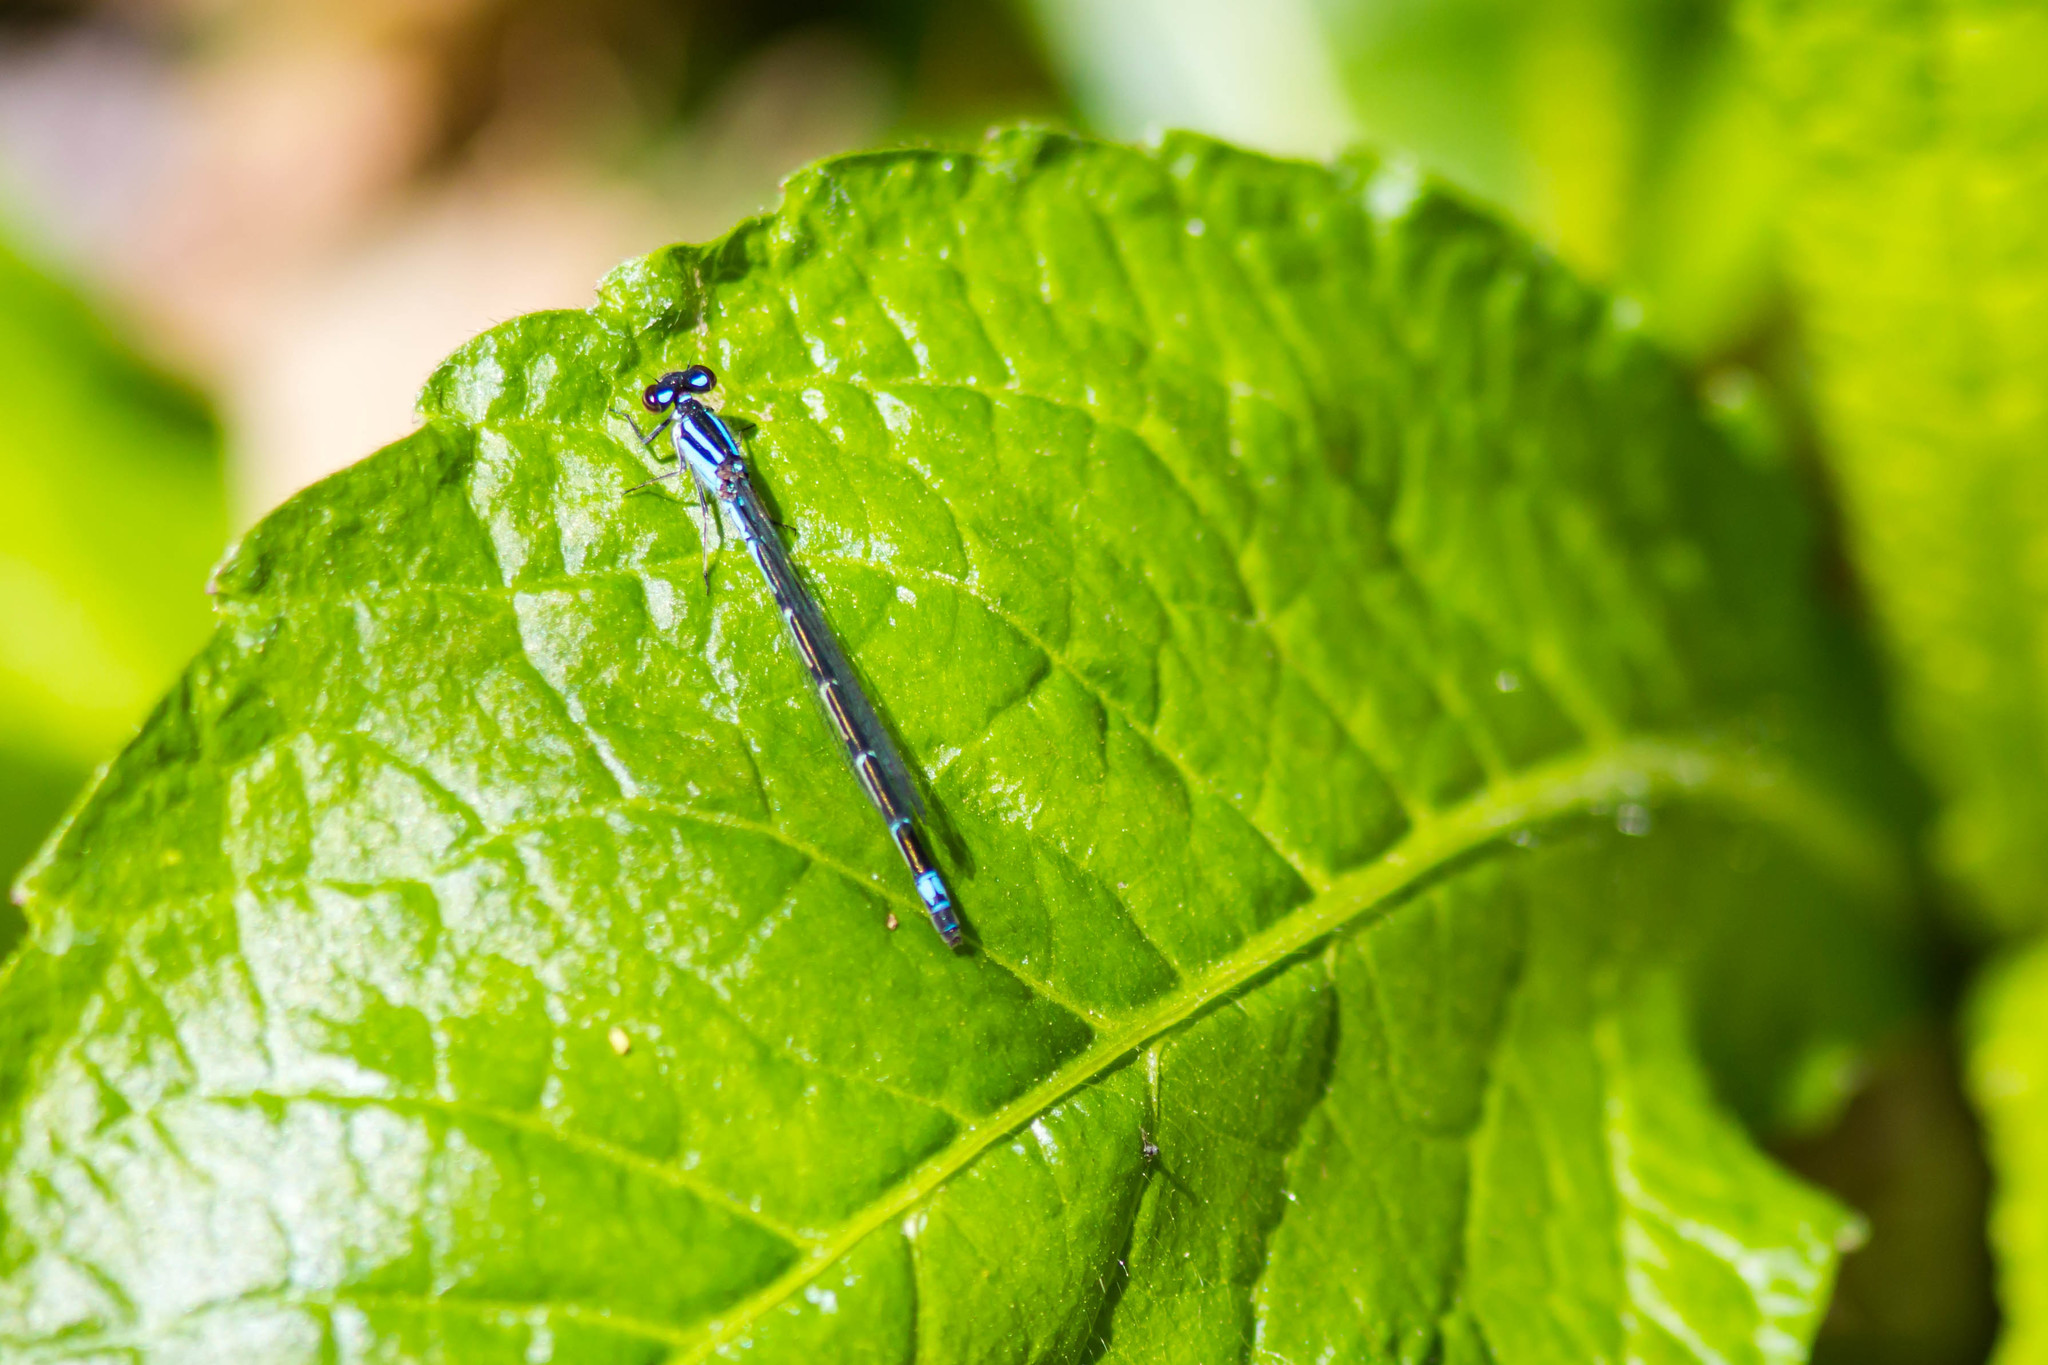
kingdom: Animalia
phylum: Arthropoda
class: Insecta
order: Odonata
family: Coenagrionidae
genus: Enallagma
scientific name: Enallagma geminatum
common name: Skimming bluet
